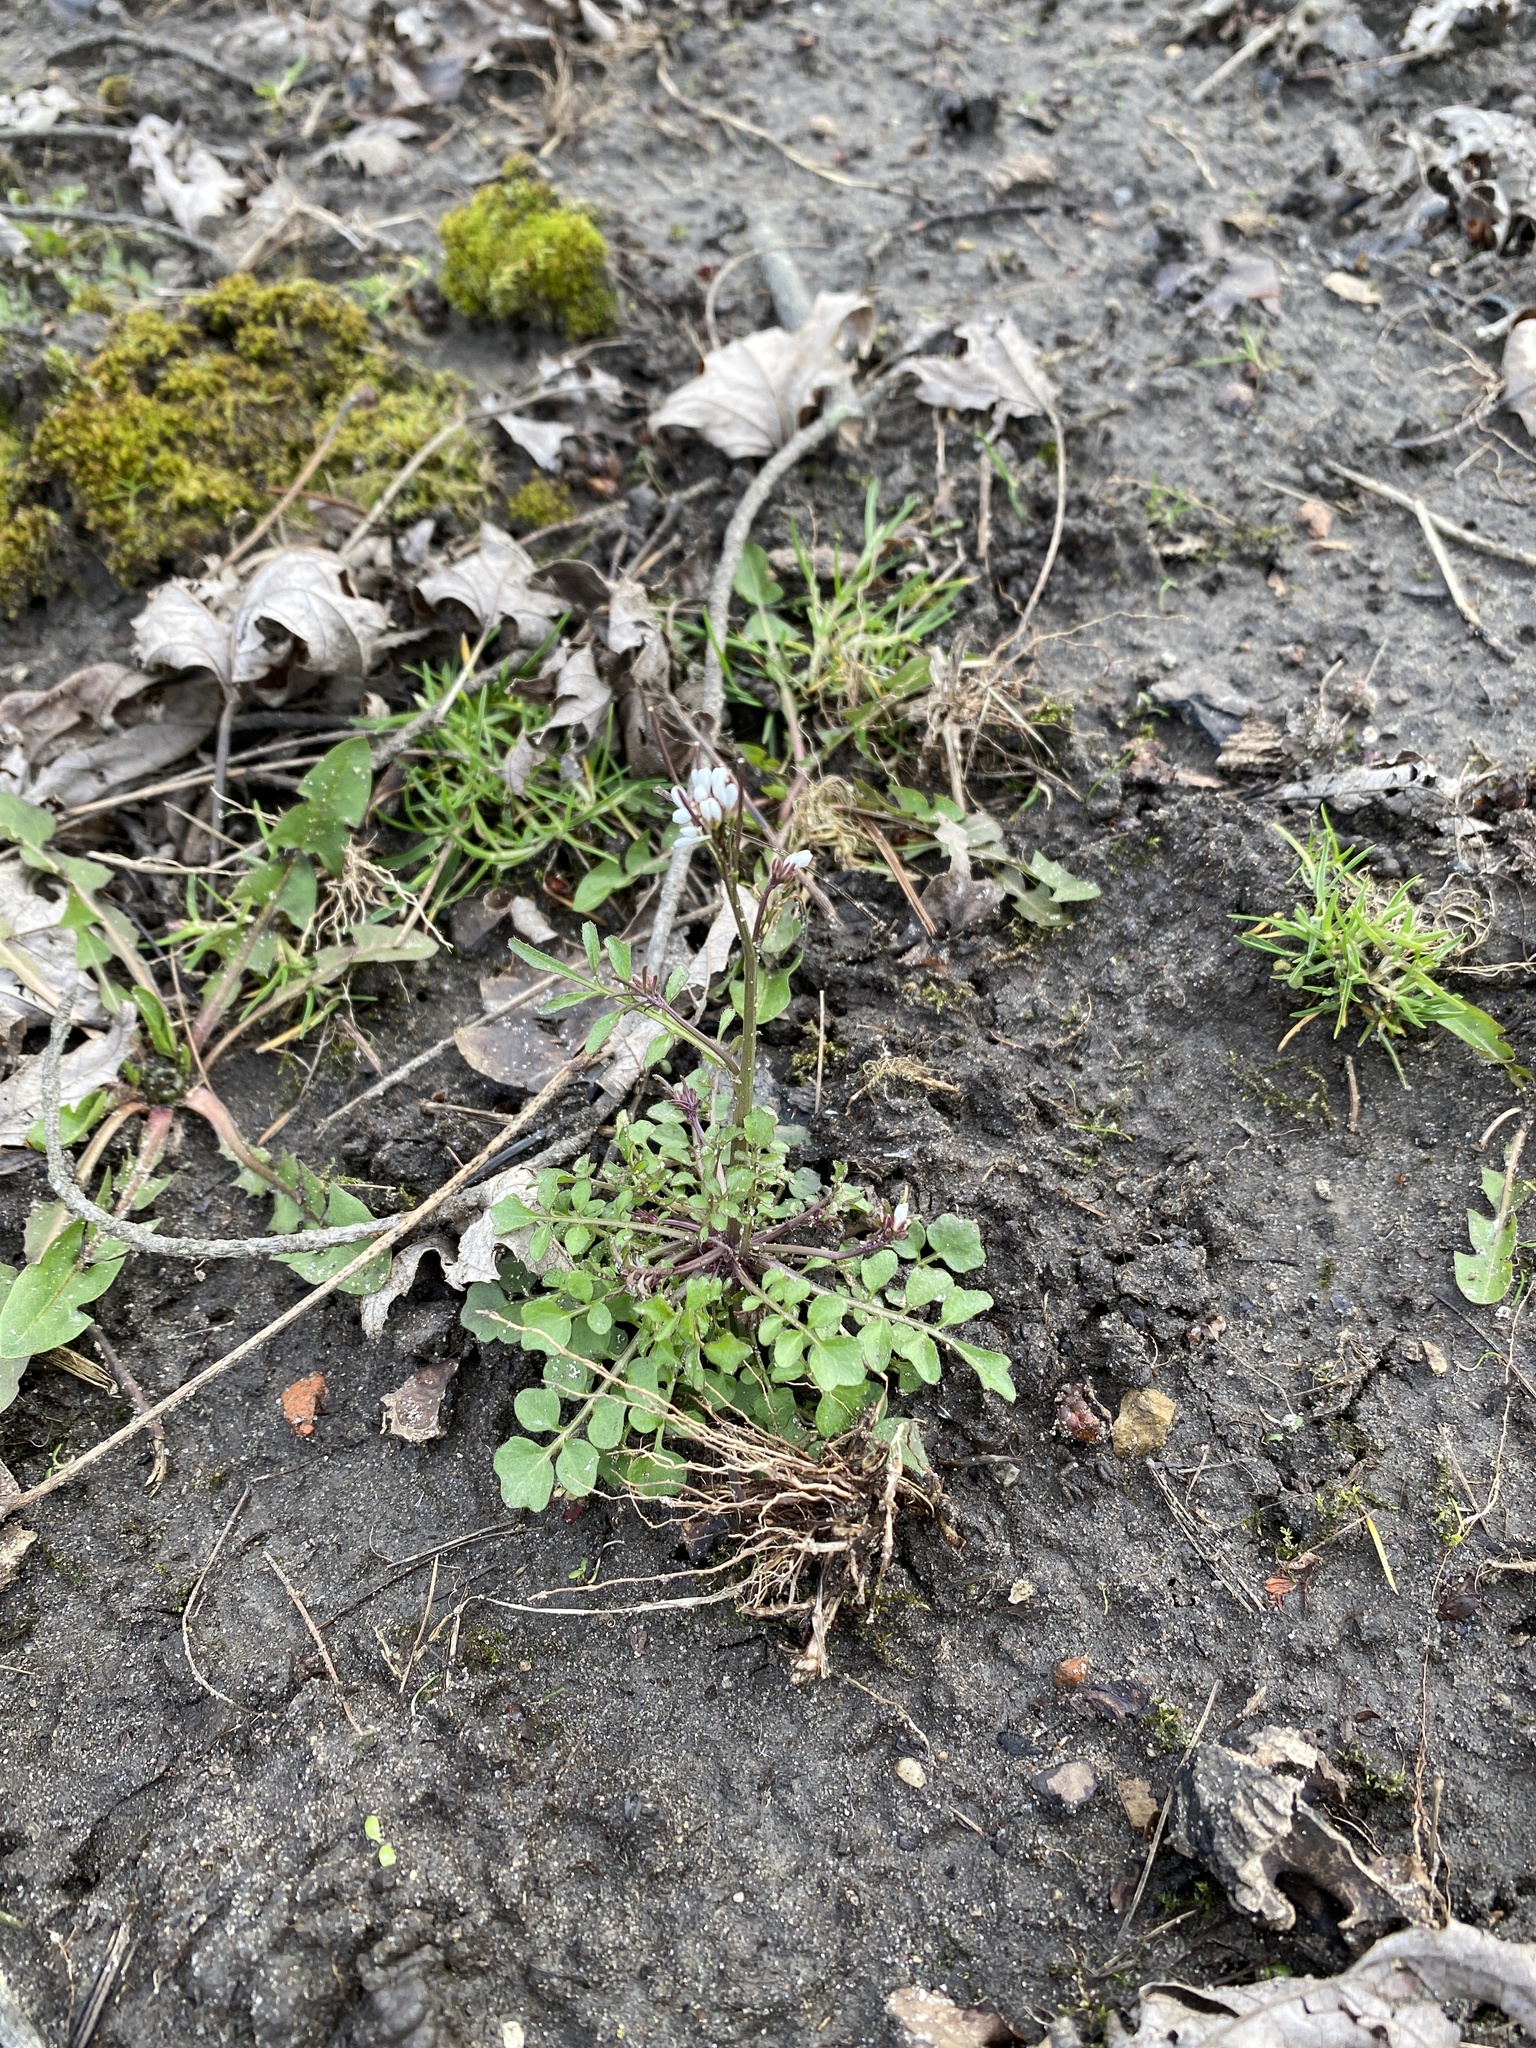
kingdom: Plantae
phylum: Tracheophyta
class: Magnoliopsida
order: Brassicales
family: Brassicaceae
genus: Cardamine
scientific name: Cardamine hirsuta
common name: Hairy bittercress
